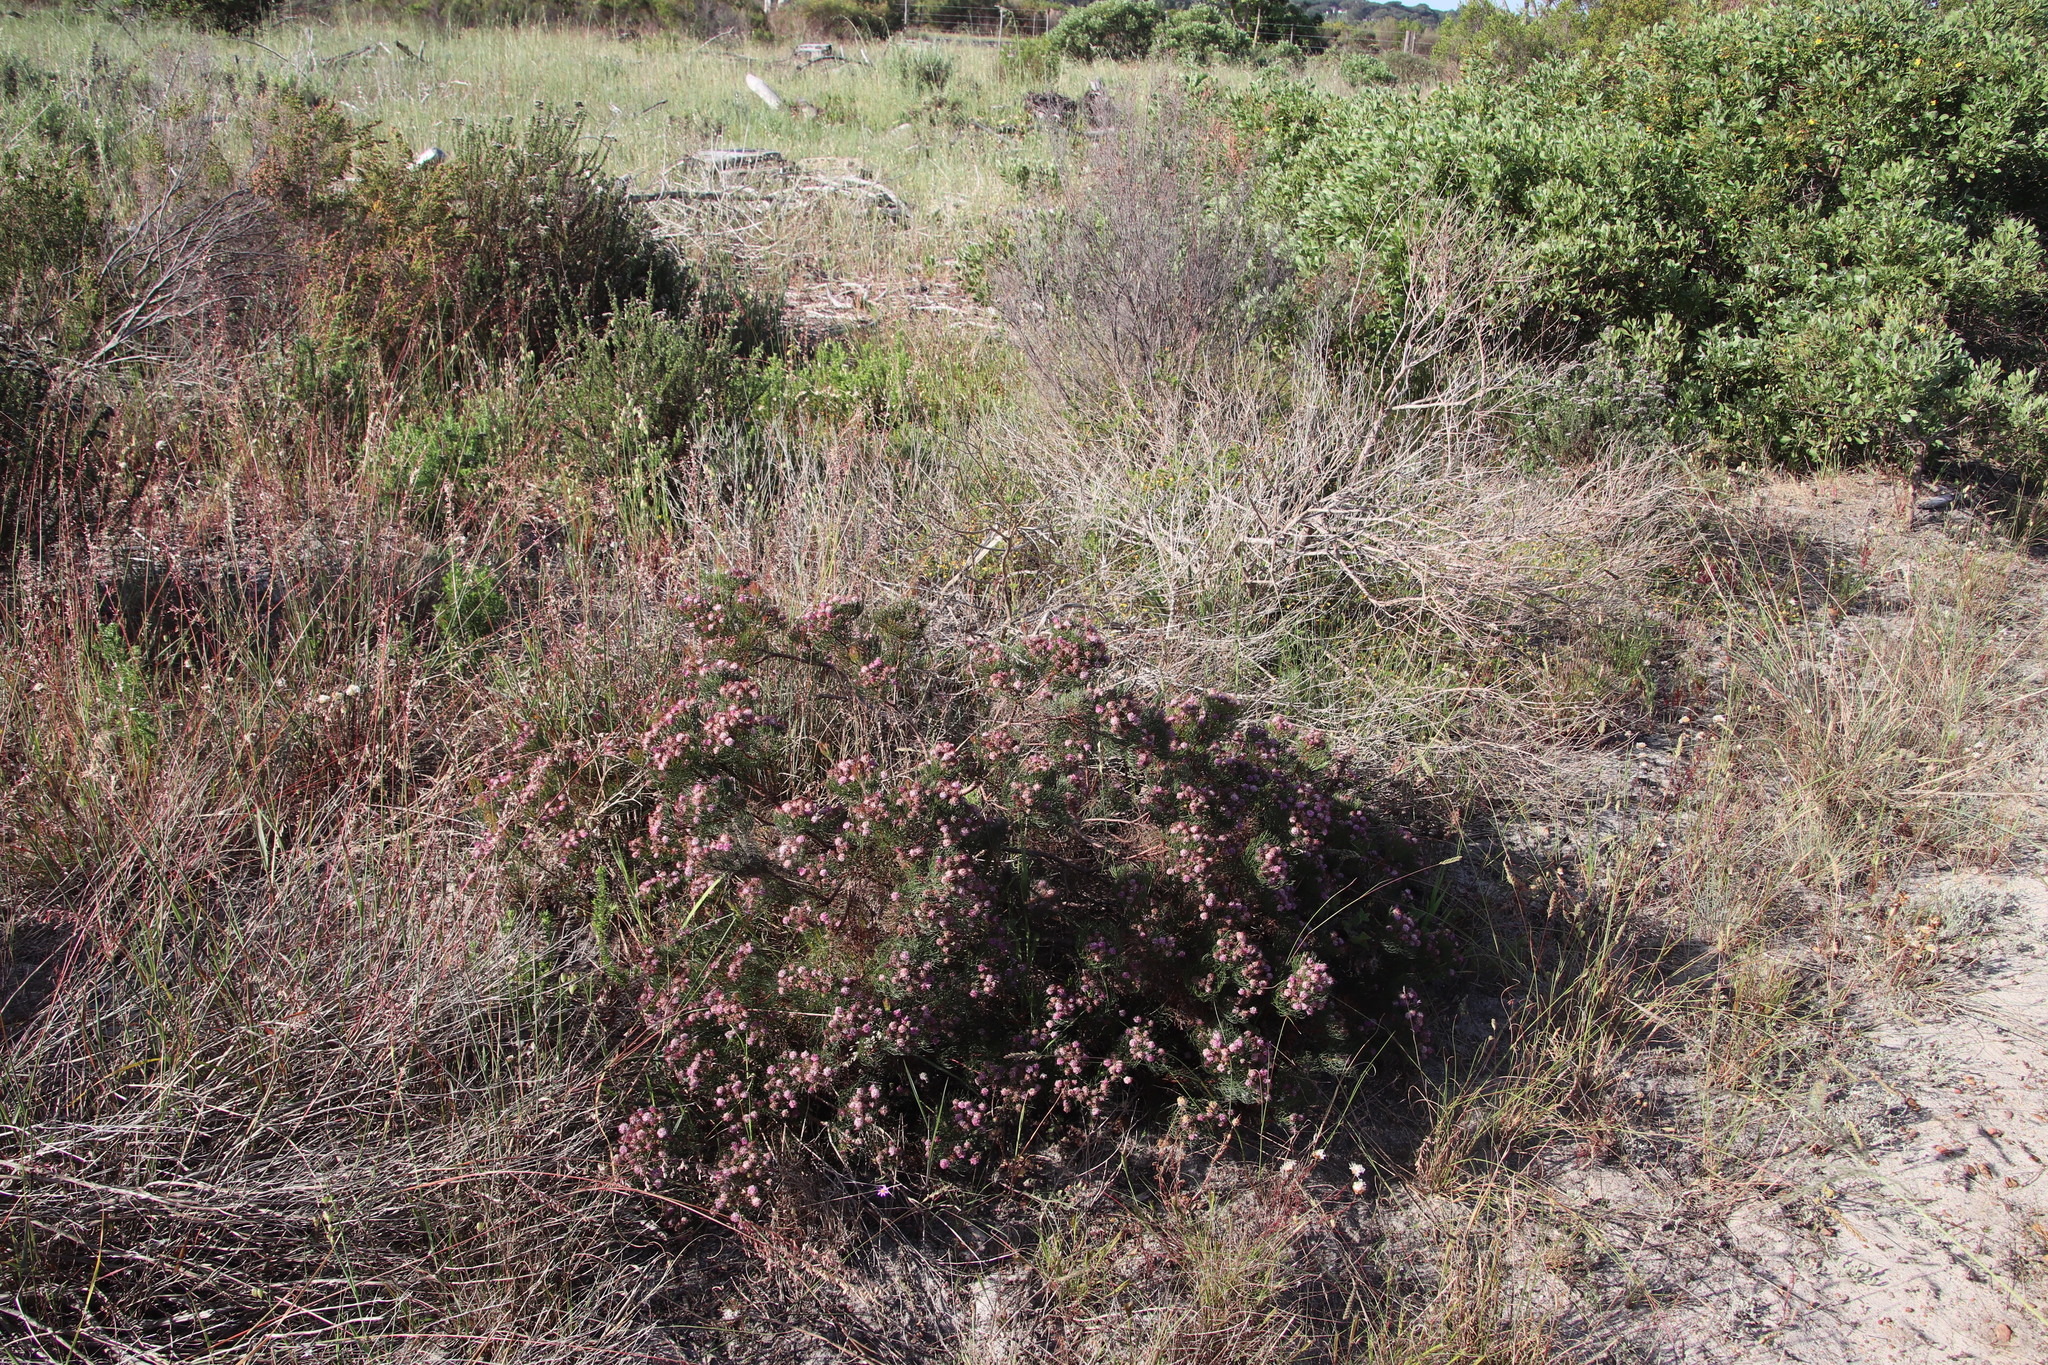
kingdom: Plantae
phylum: Tracheophyta
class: Magnoliopsida
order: Proteales
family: Proteaceae
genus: Serruria
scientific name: Serruria fasciflora
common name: Common pin spiderhead
